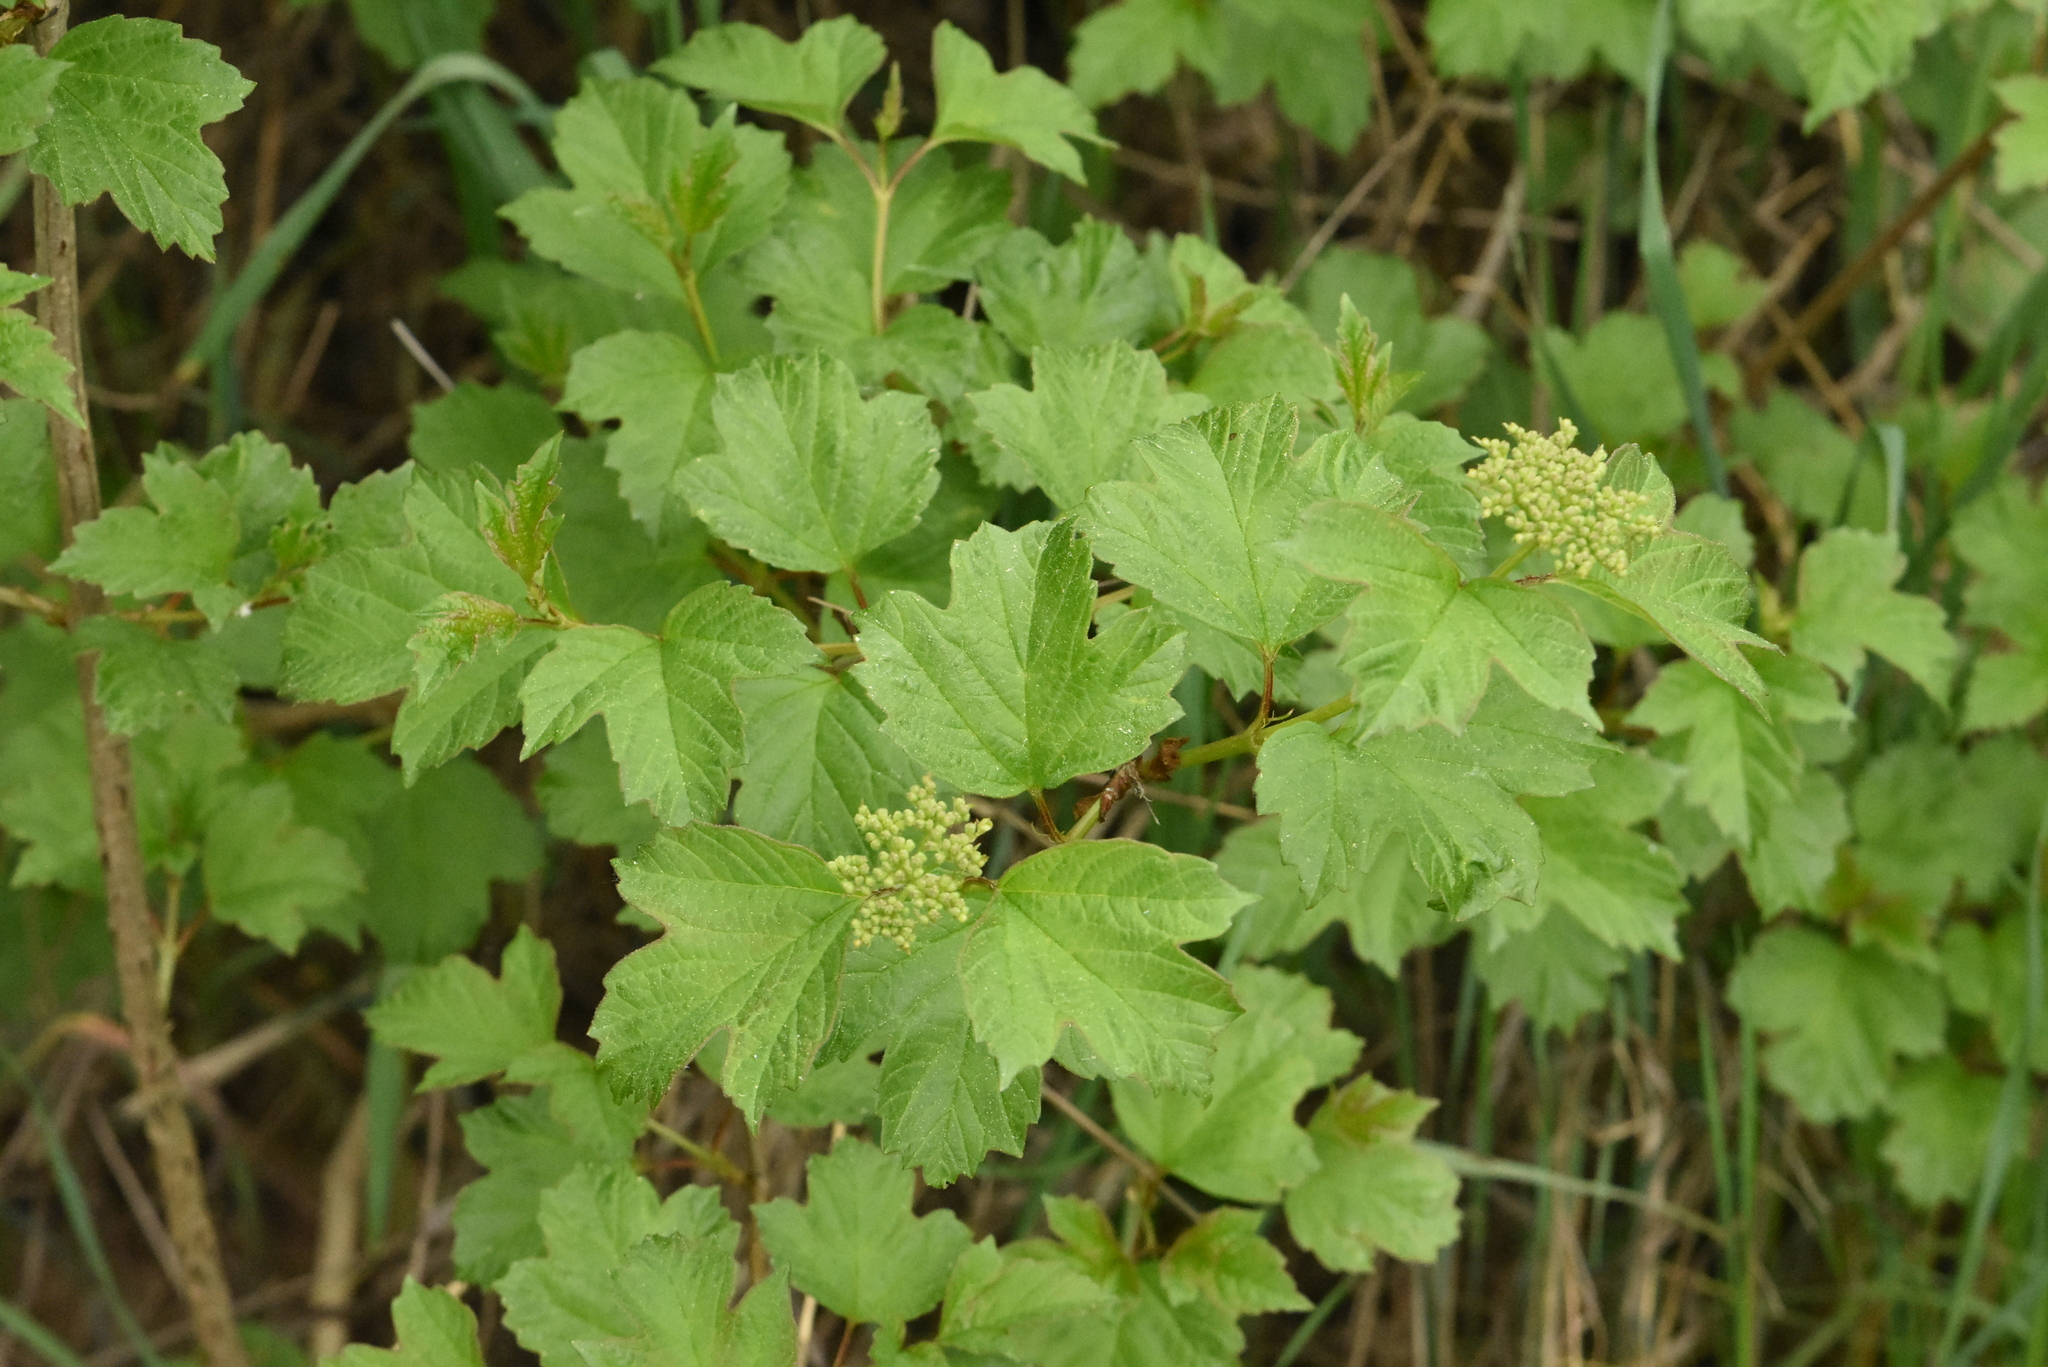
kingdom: Plantae
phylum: Tracheophyta
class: Magnoliopsida
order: Dipsacales
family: Viburnaceae
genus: Viburnum
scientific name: Viburnum opulus
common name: Guelder-rose
